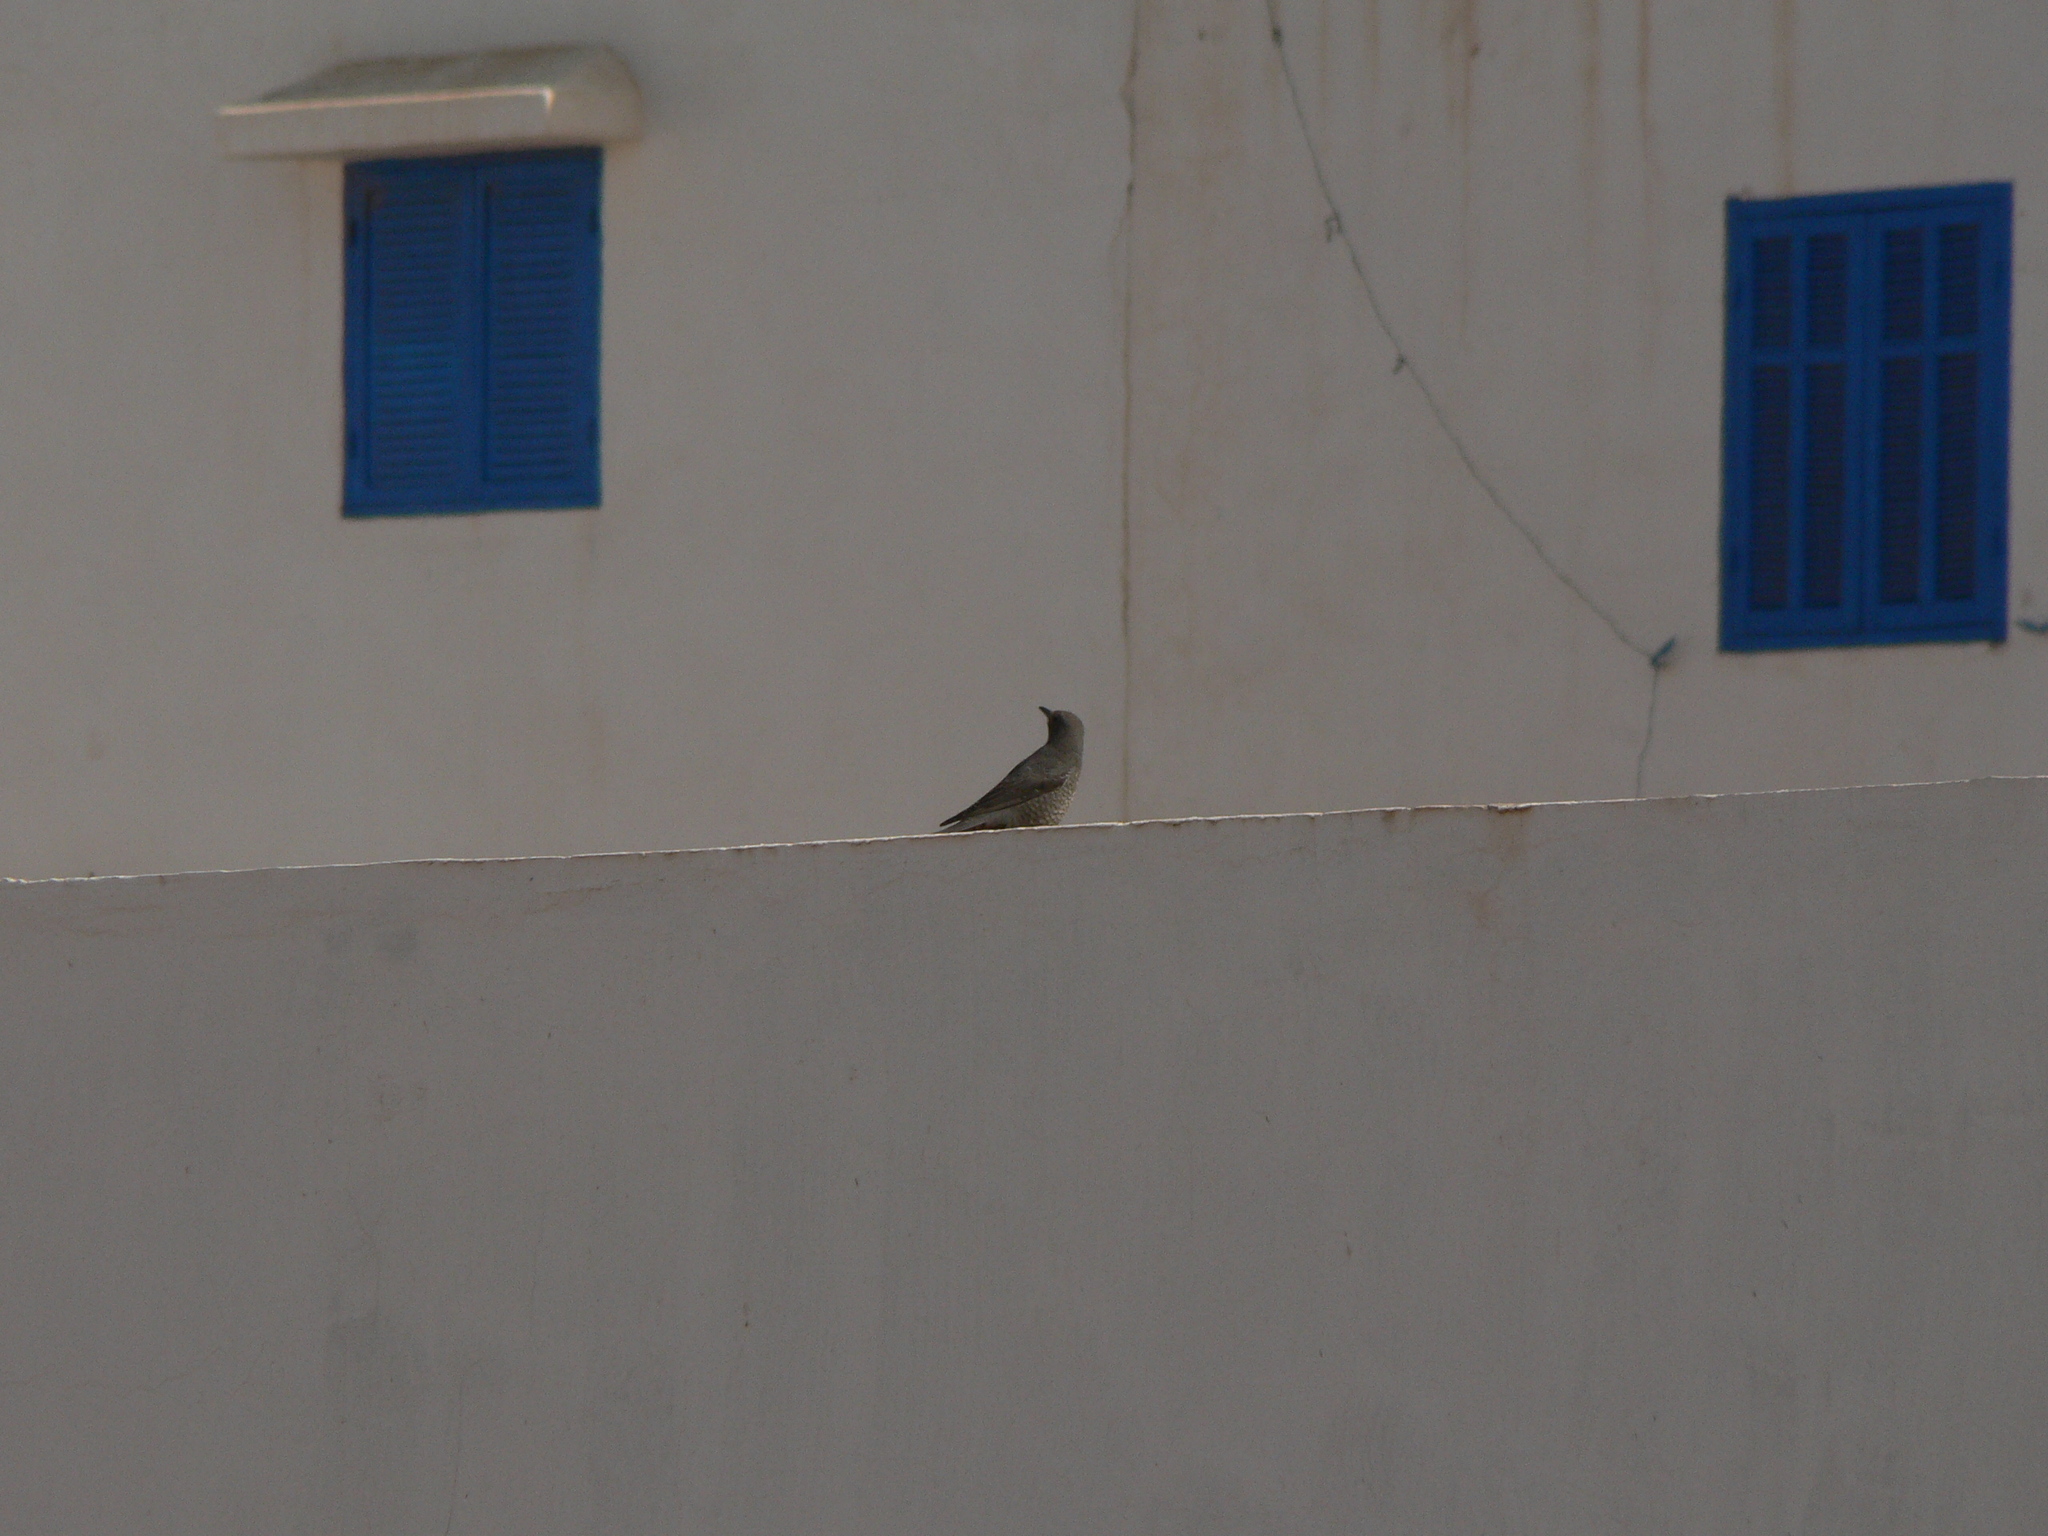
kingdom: Animalia
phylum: Chordata
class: Aves
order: Passeriformes
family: Muscicapidae
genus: Monticola
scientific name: Monticola solitarius
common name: Blue rock thrush
